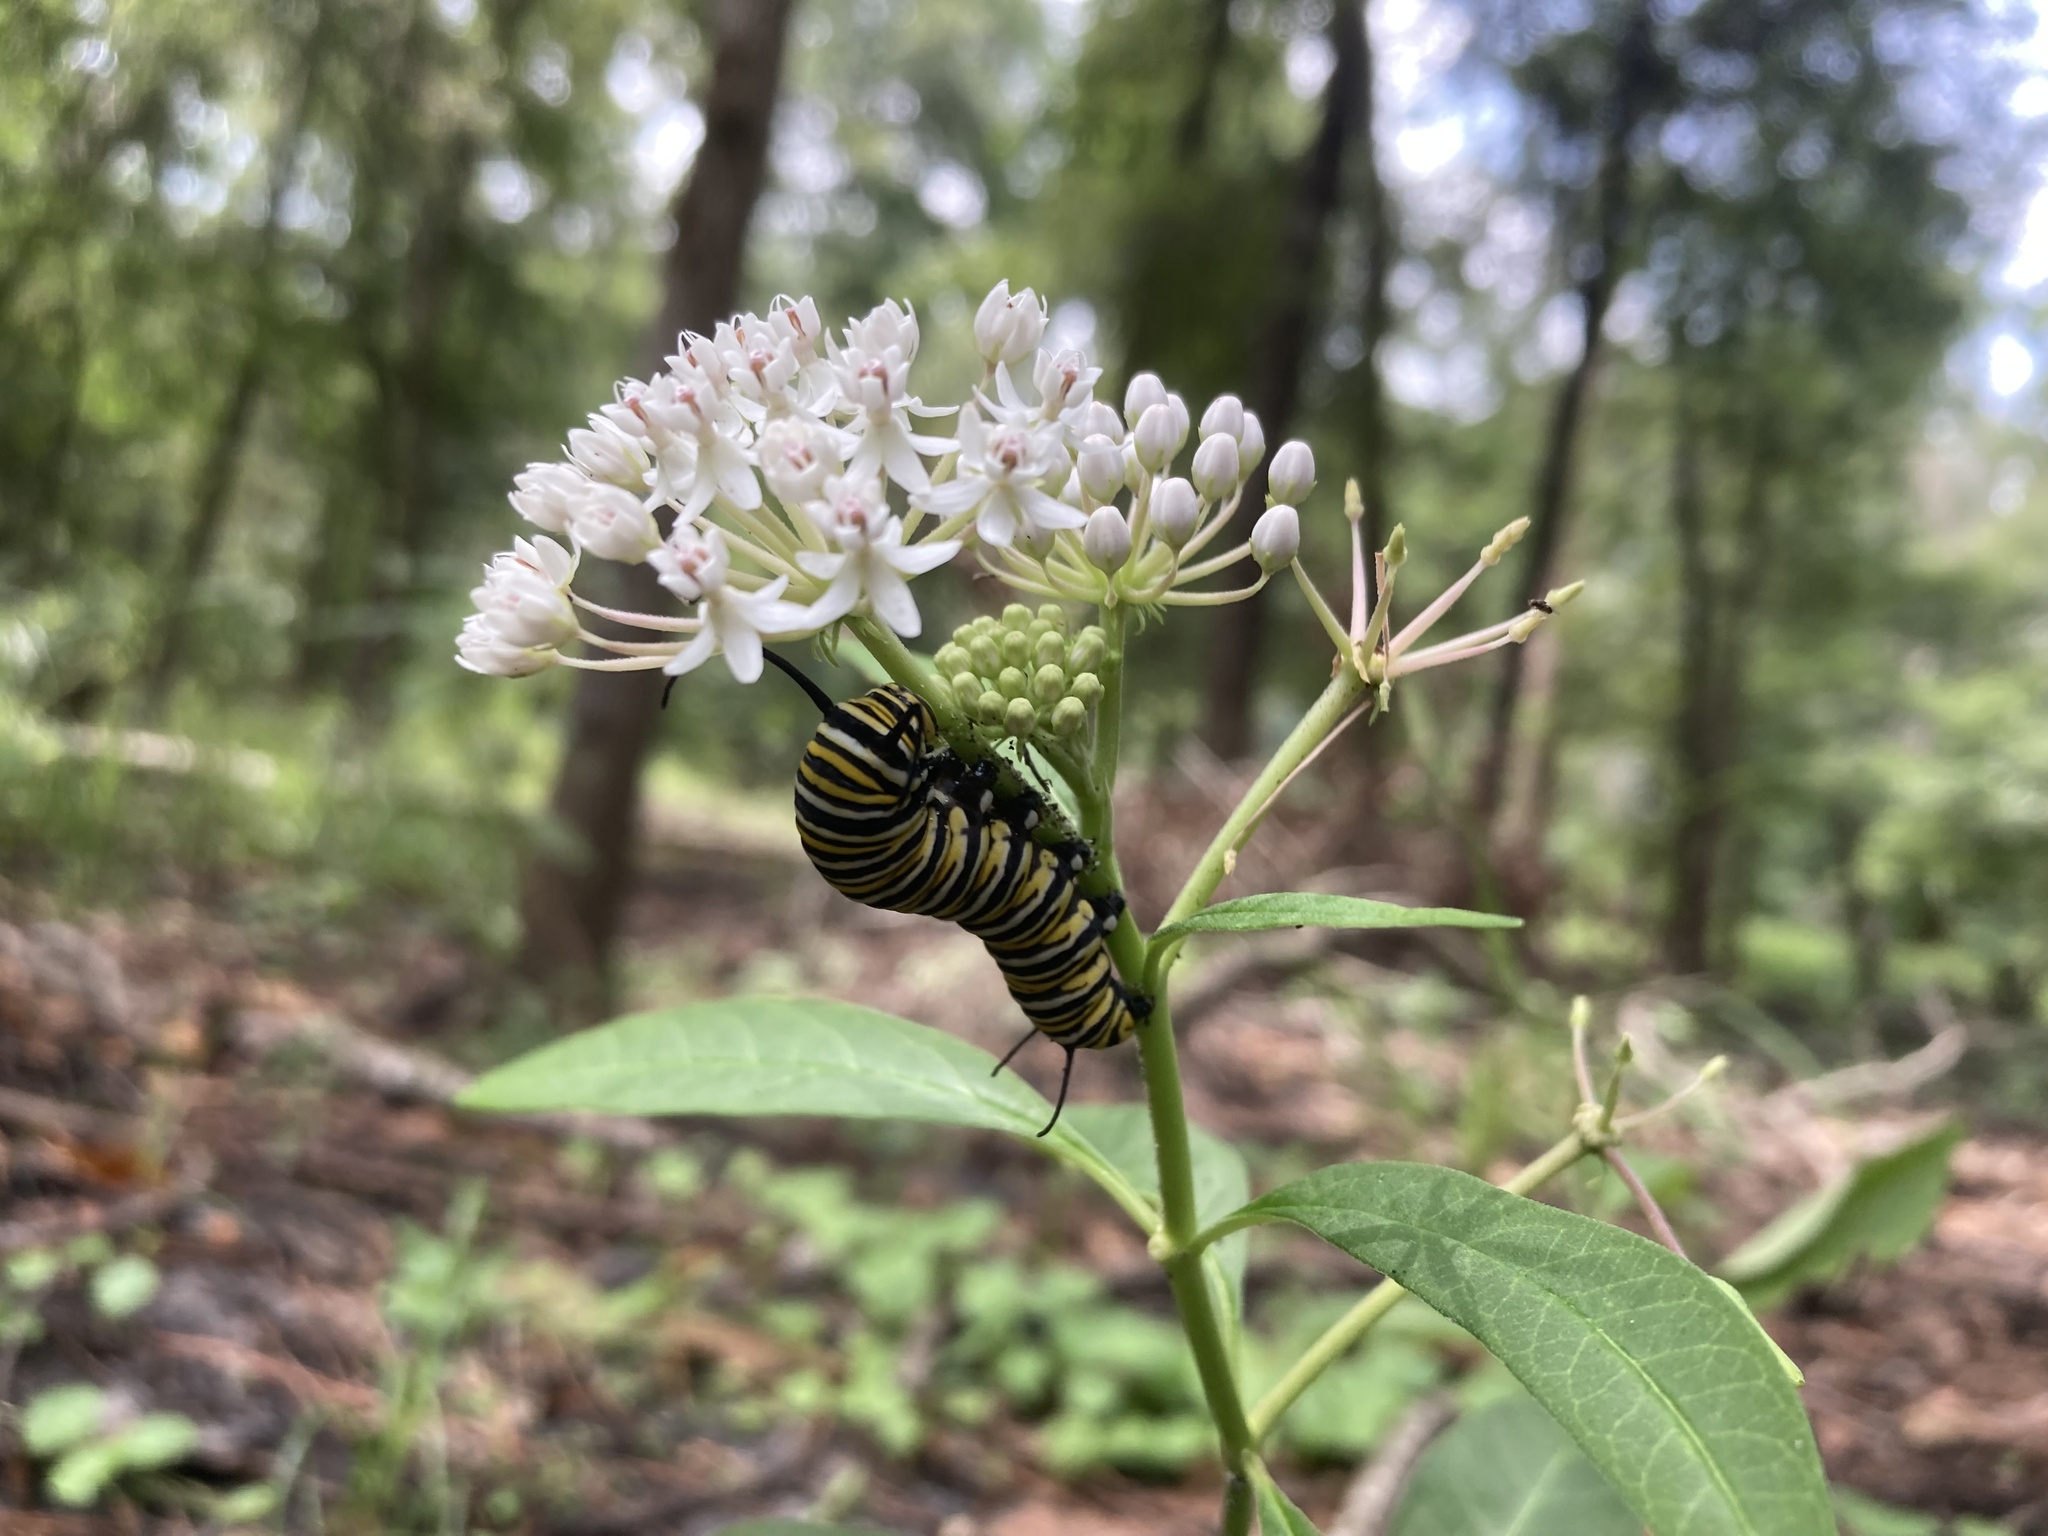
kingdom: Animalia
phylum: Arthropoda
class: Insecta
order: Lepidoptera
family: Nymphalidae
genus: Danaus
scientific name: Danaus plexippus
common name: Monarch
